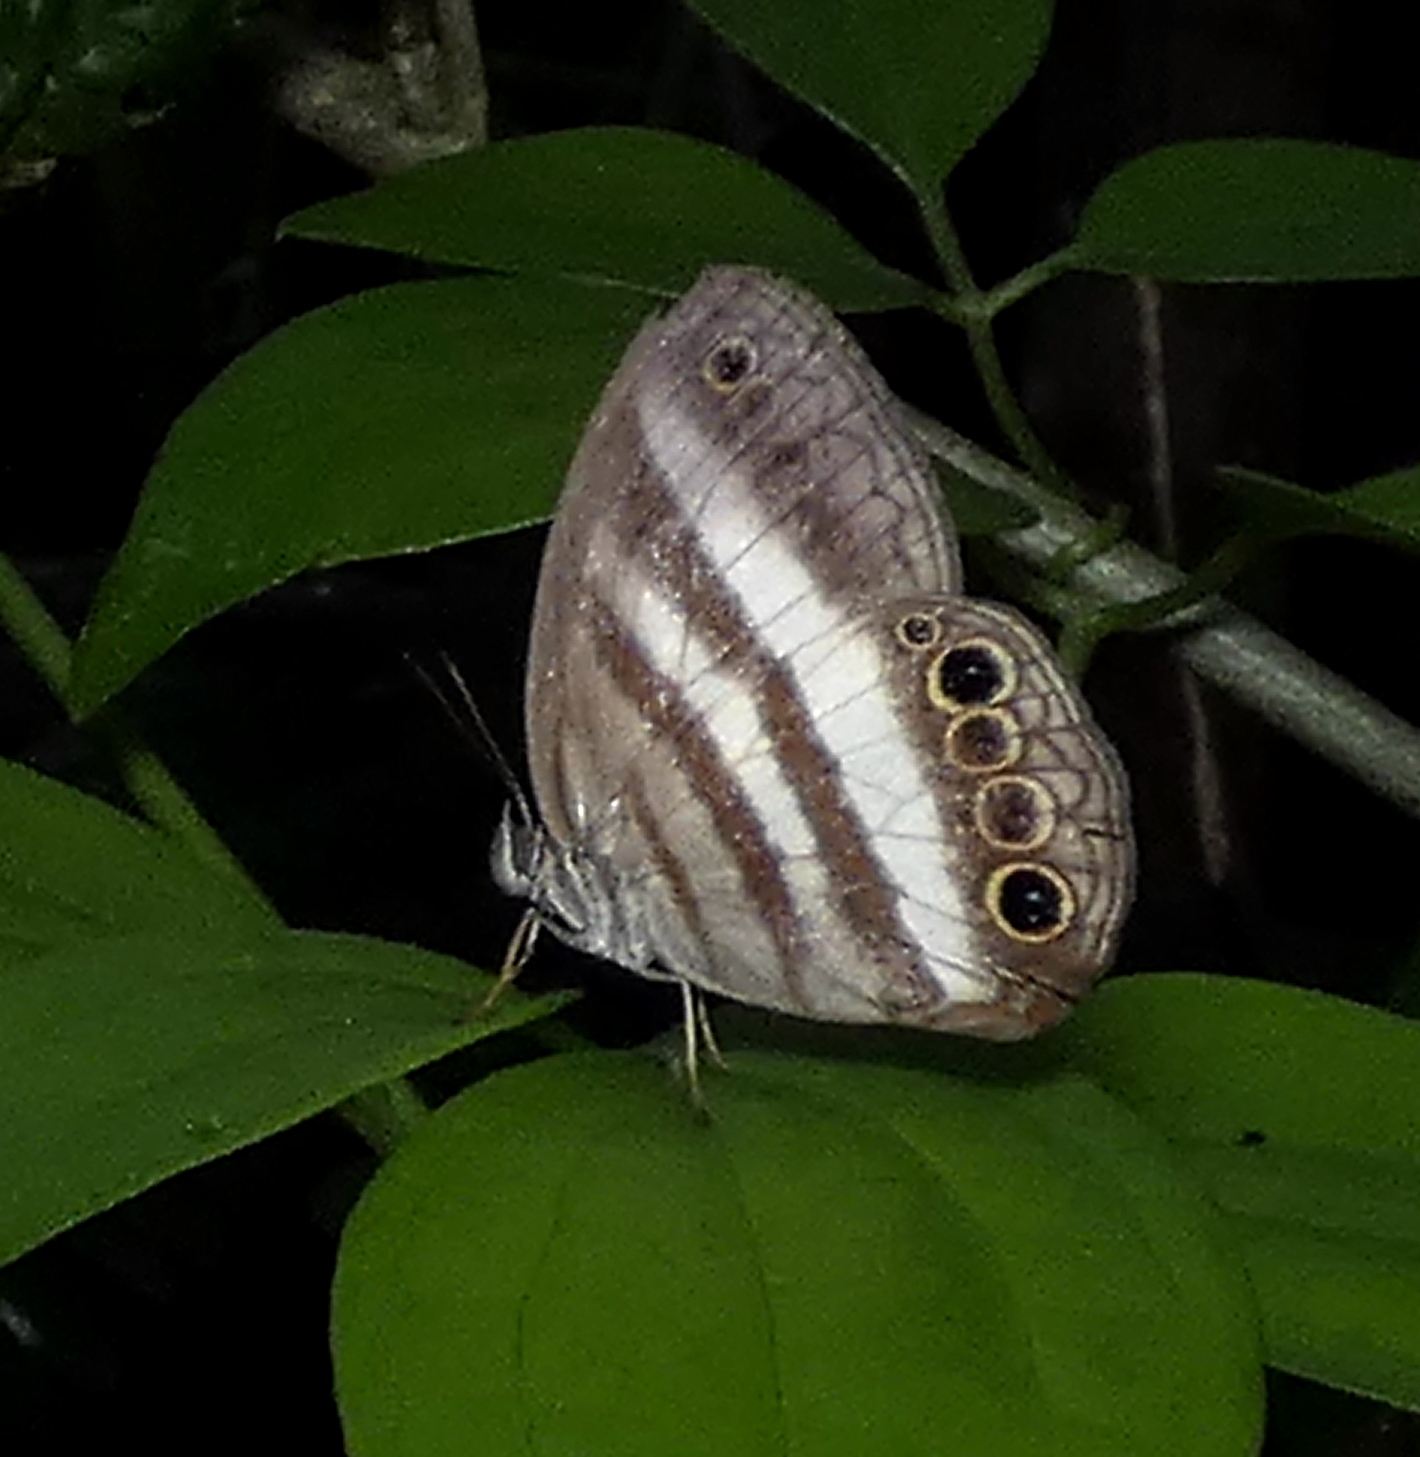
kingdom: Animalia
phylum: Arthropoda
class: Insecta
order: Lepidoptera
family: Nymphalidae
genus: Pareuptychia
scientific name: Pareuptychia hesione
